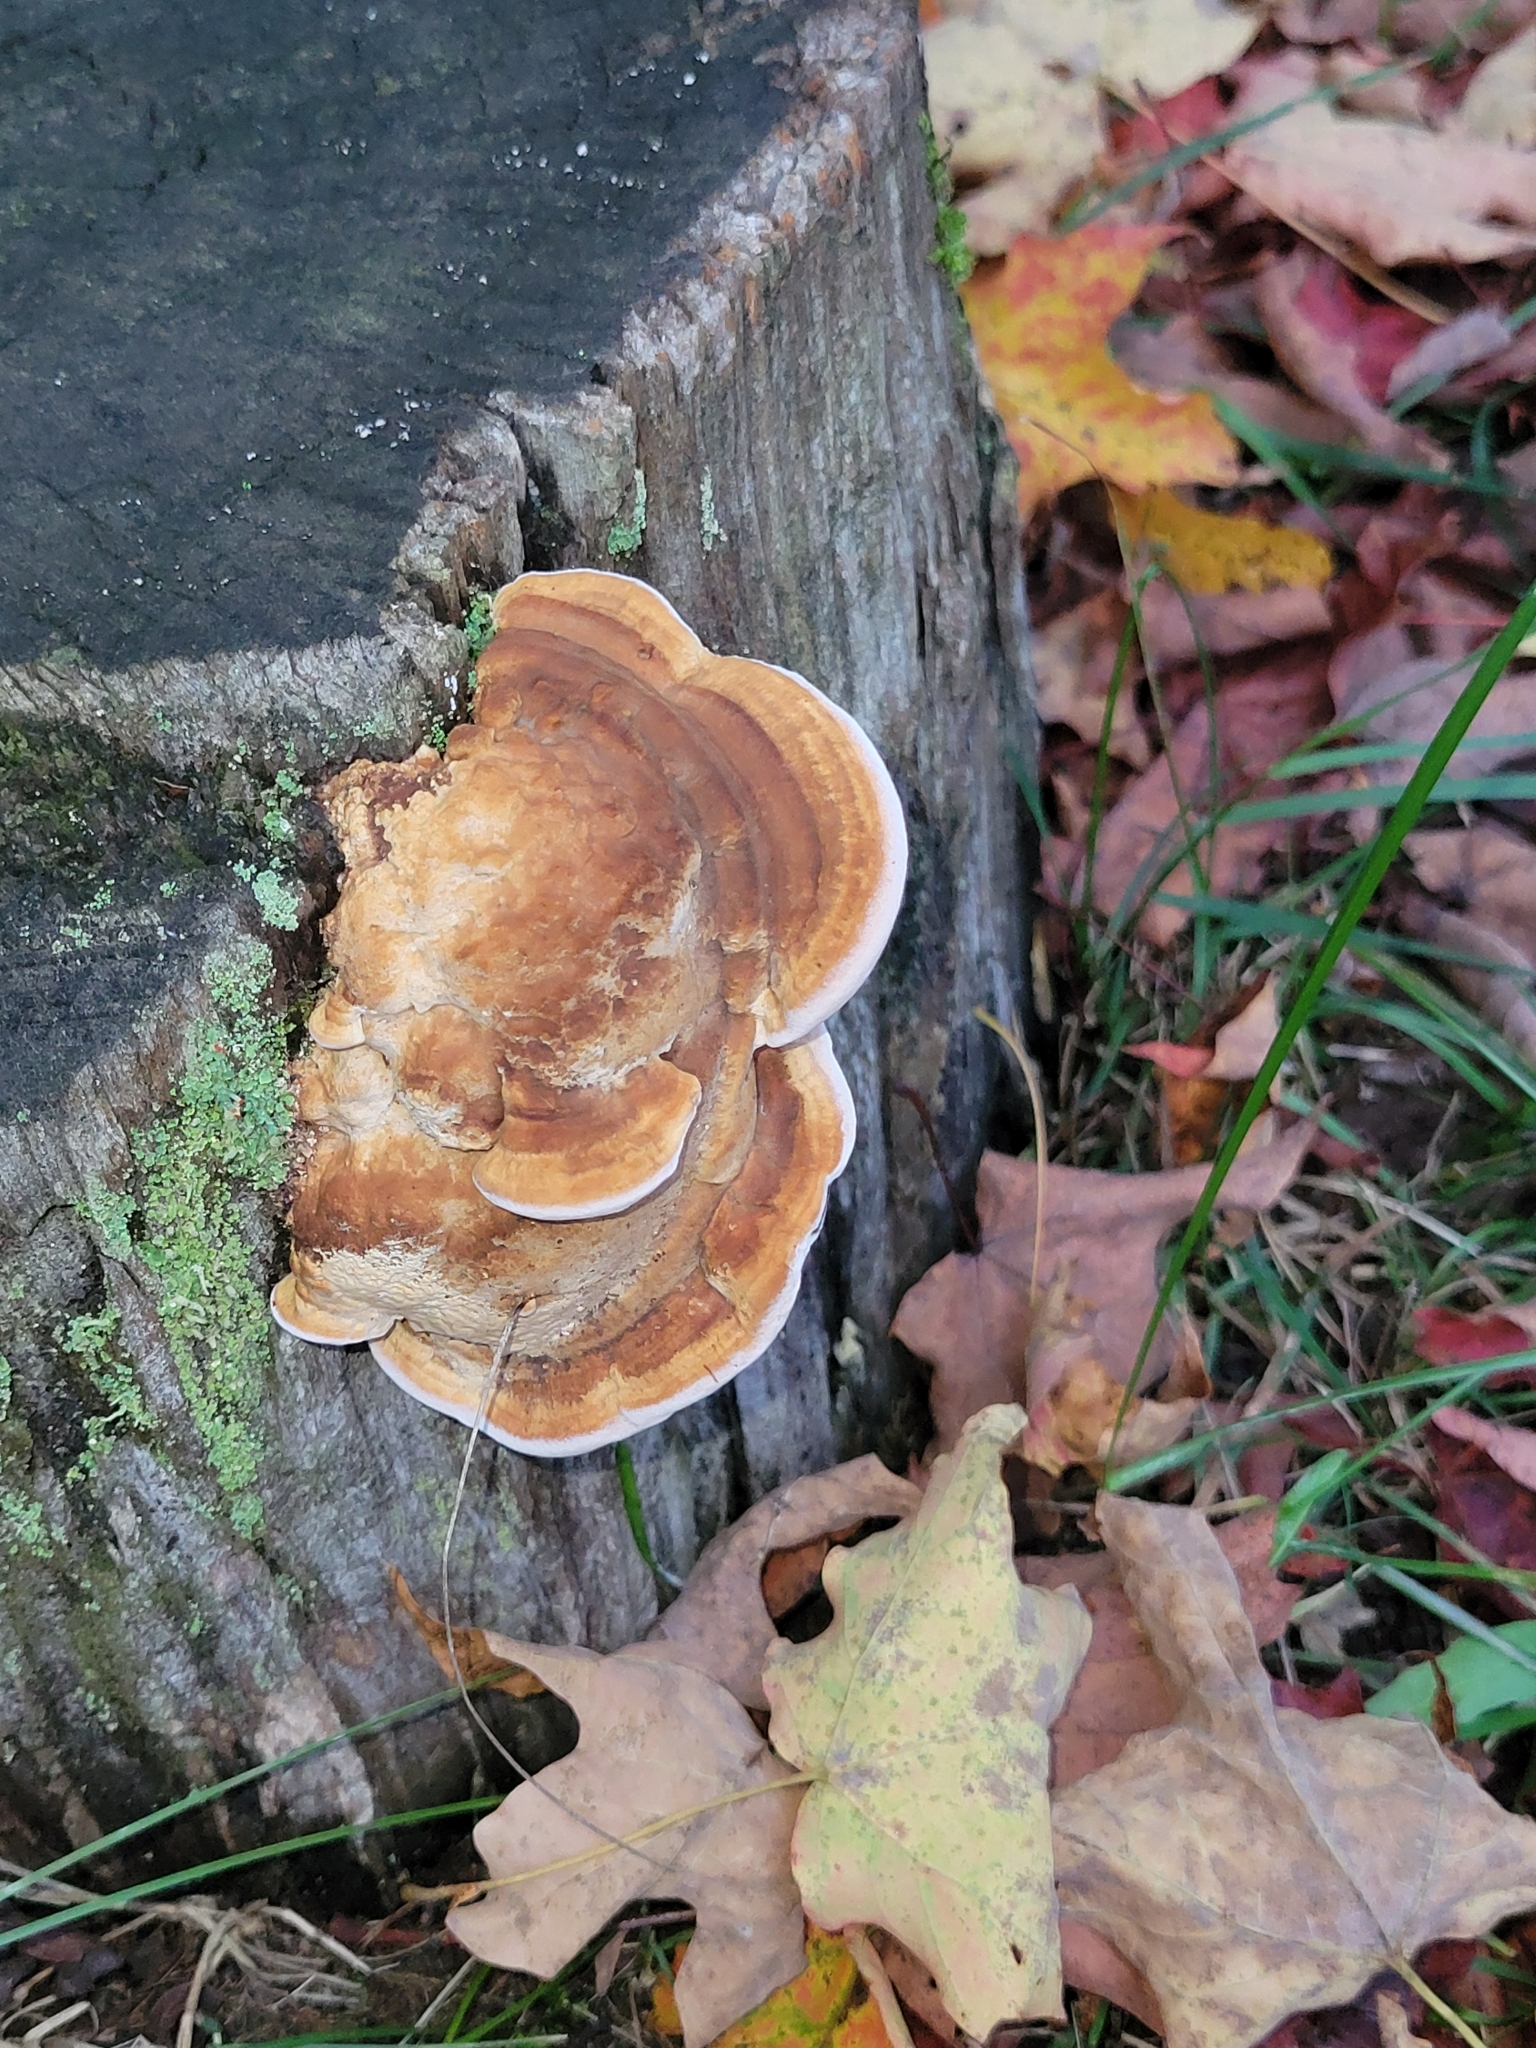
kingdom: Fungi
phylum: Basidiomycota
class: Agaricomycetes
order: Polyporales
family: Fomitopsidaceae
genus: Fomitopsis
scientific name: Fomitopsis
